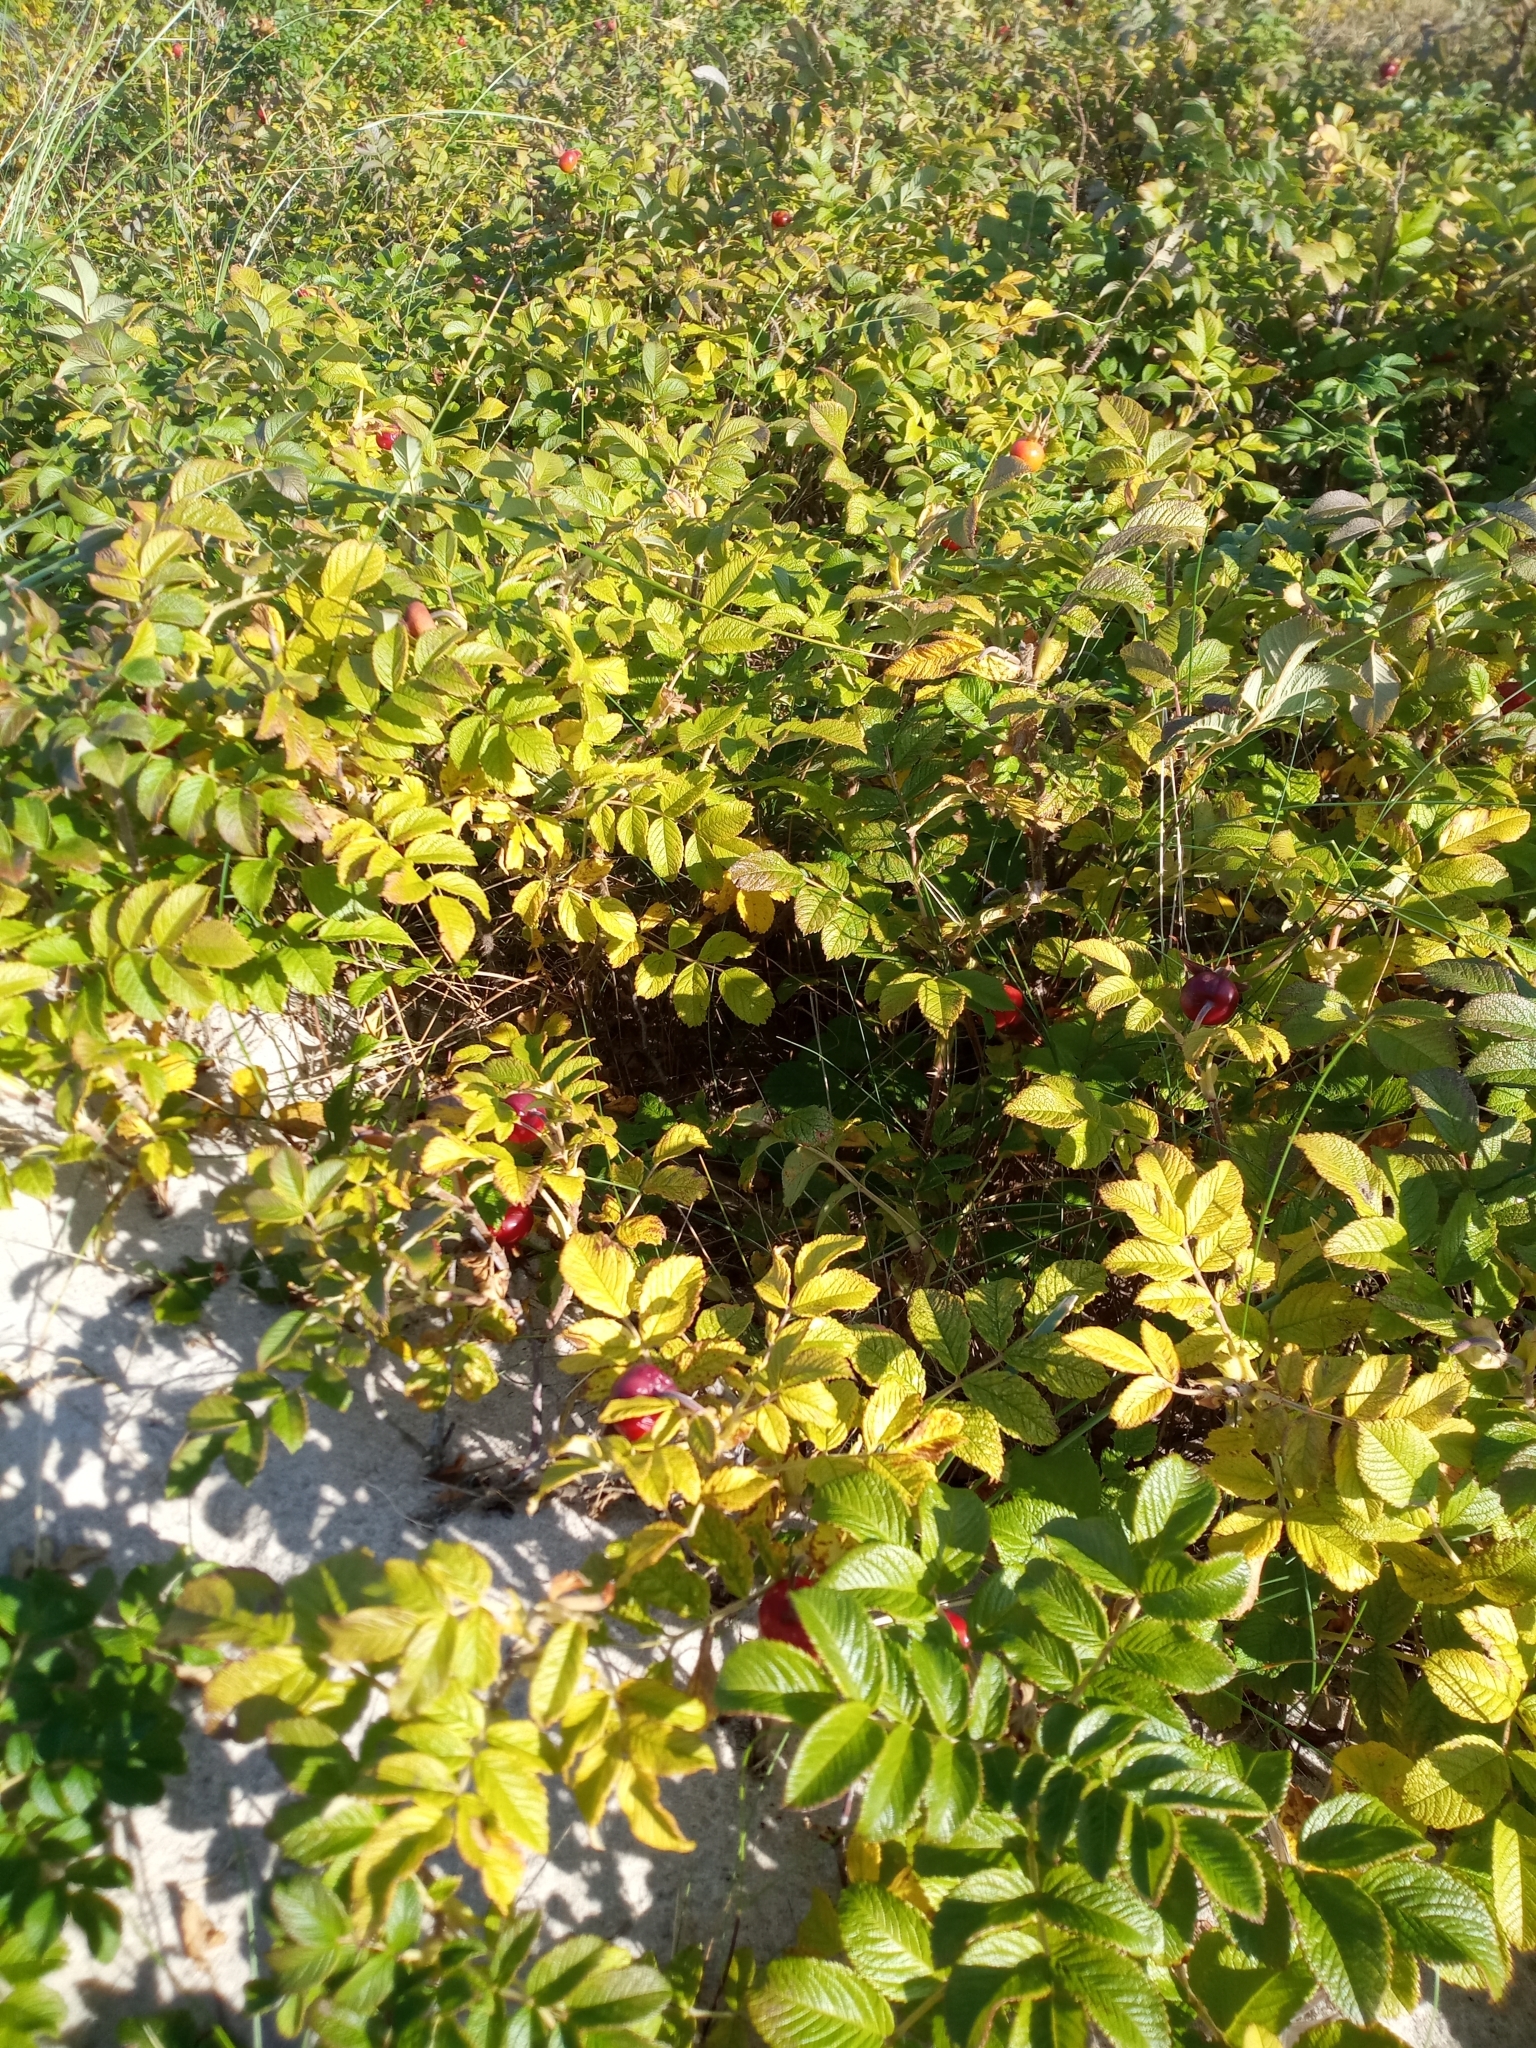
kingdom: Plantae
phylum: Tracheophyta
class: Magnoliopsida
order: Rosales
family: Rosaceae
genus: Rosa
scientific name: Rosa rugosa
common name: Japanese rose
